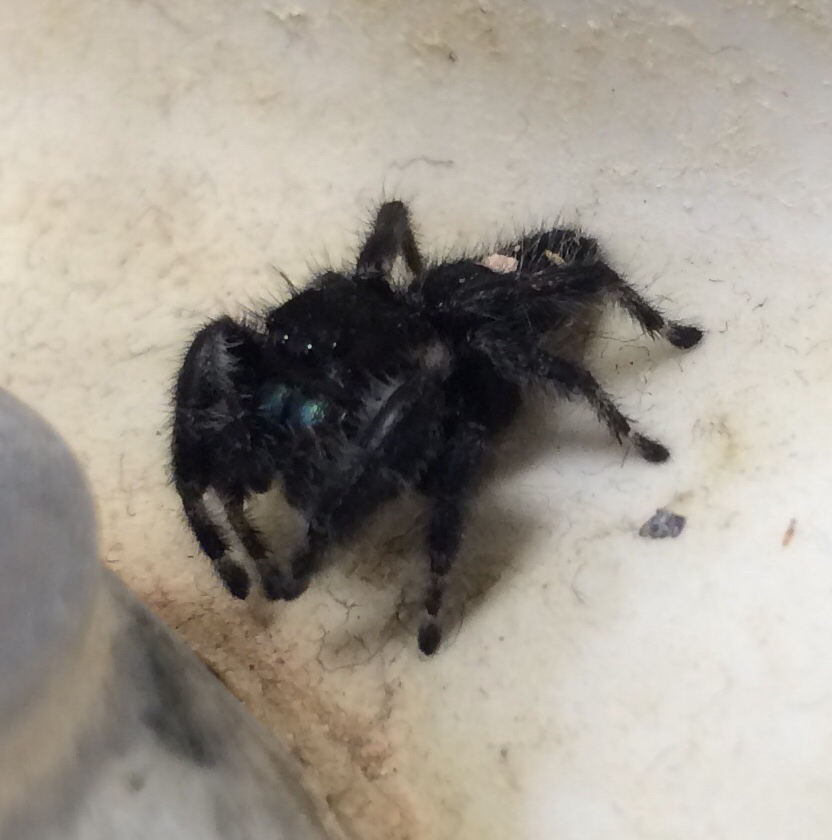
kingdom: Animalia
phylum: Arthropoda
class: Arachnida
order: Araneae
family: Salticidae
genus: Phidippus
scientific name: Phidippus audax
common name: Bold jumper
